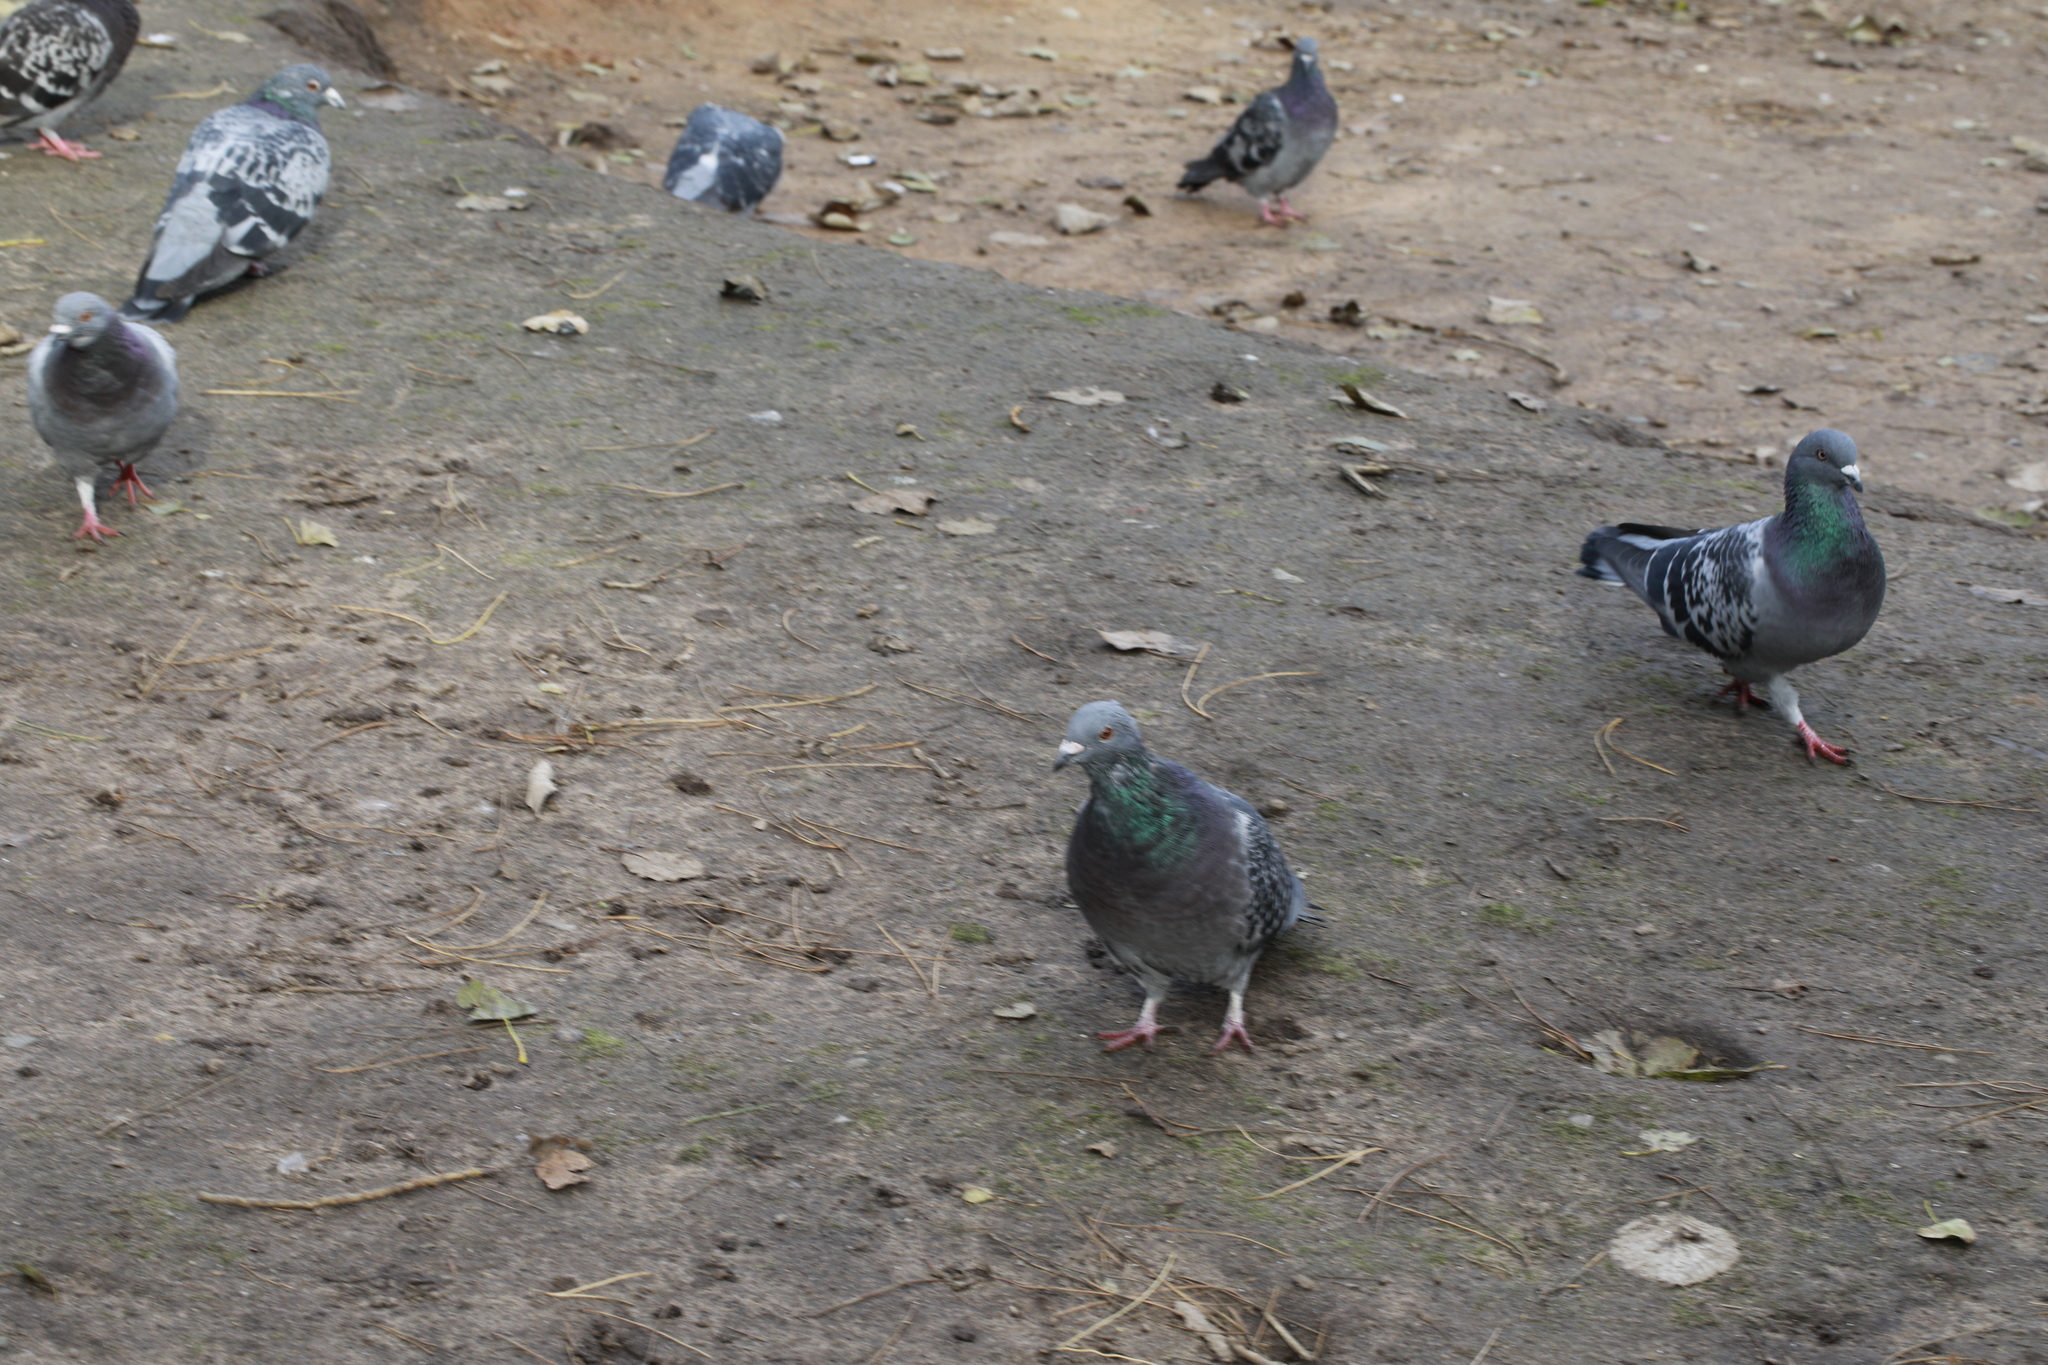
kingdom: Animalia
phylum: Chordata
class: Aves
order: Columbiformes
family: Columbidae
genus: Columba
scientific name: Columba livia
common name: Rock pigeon
